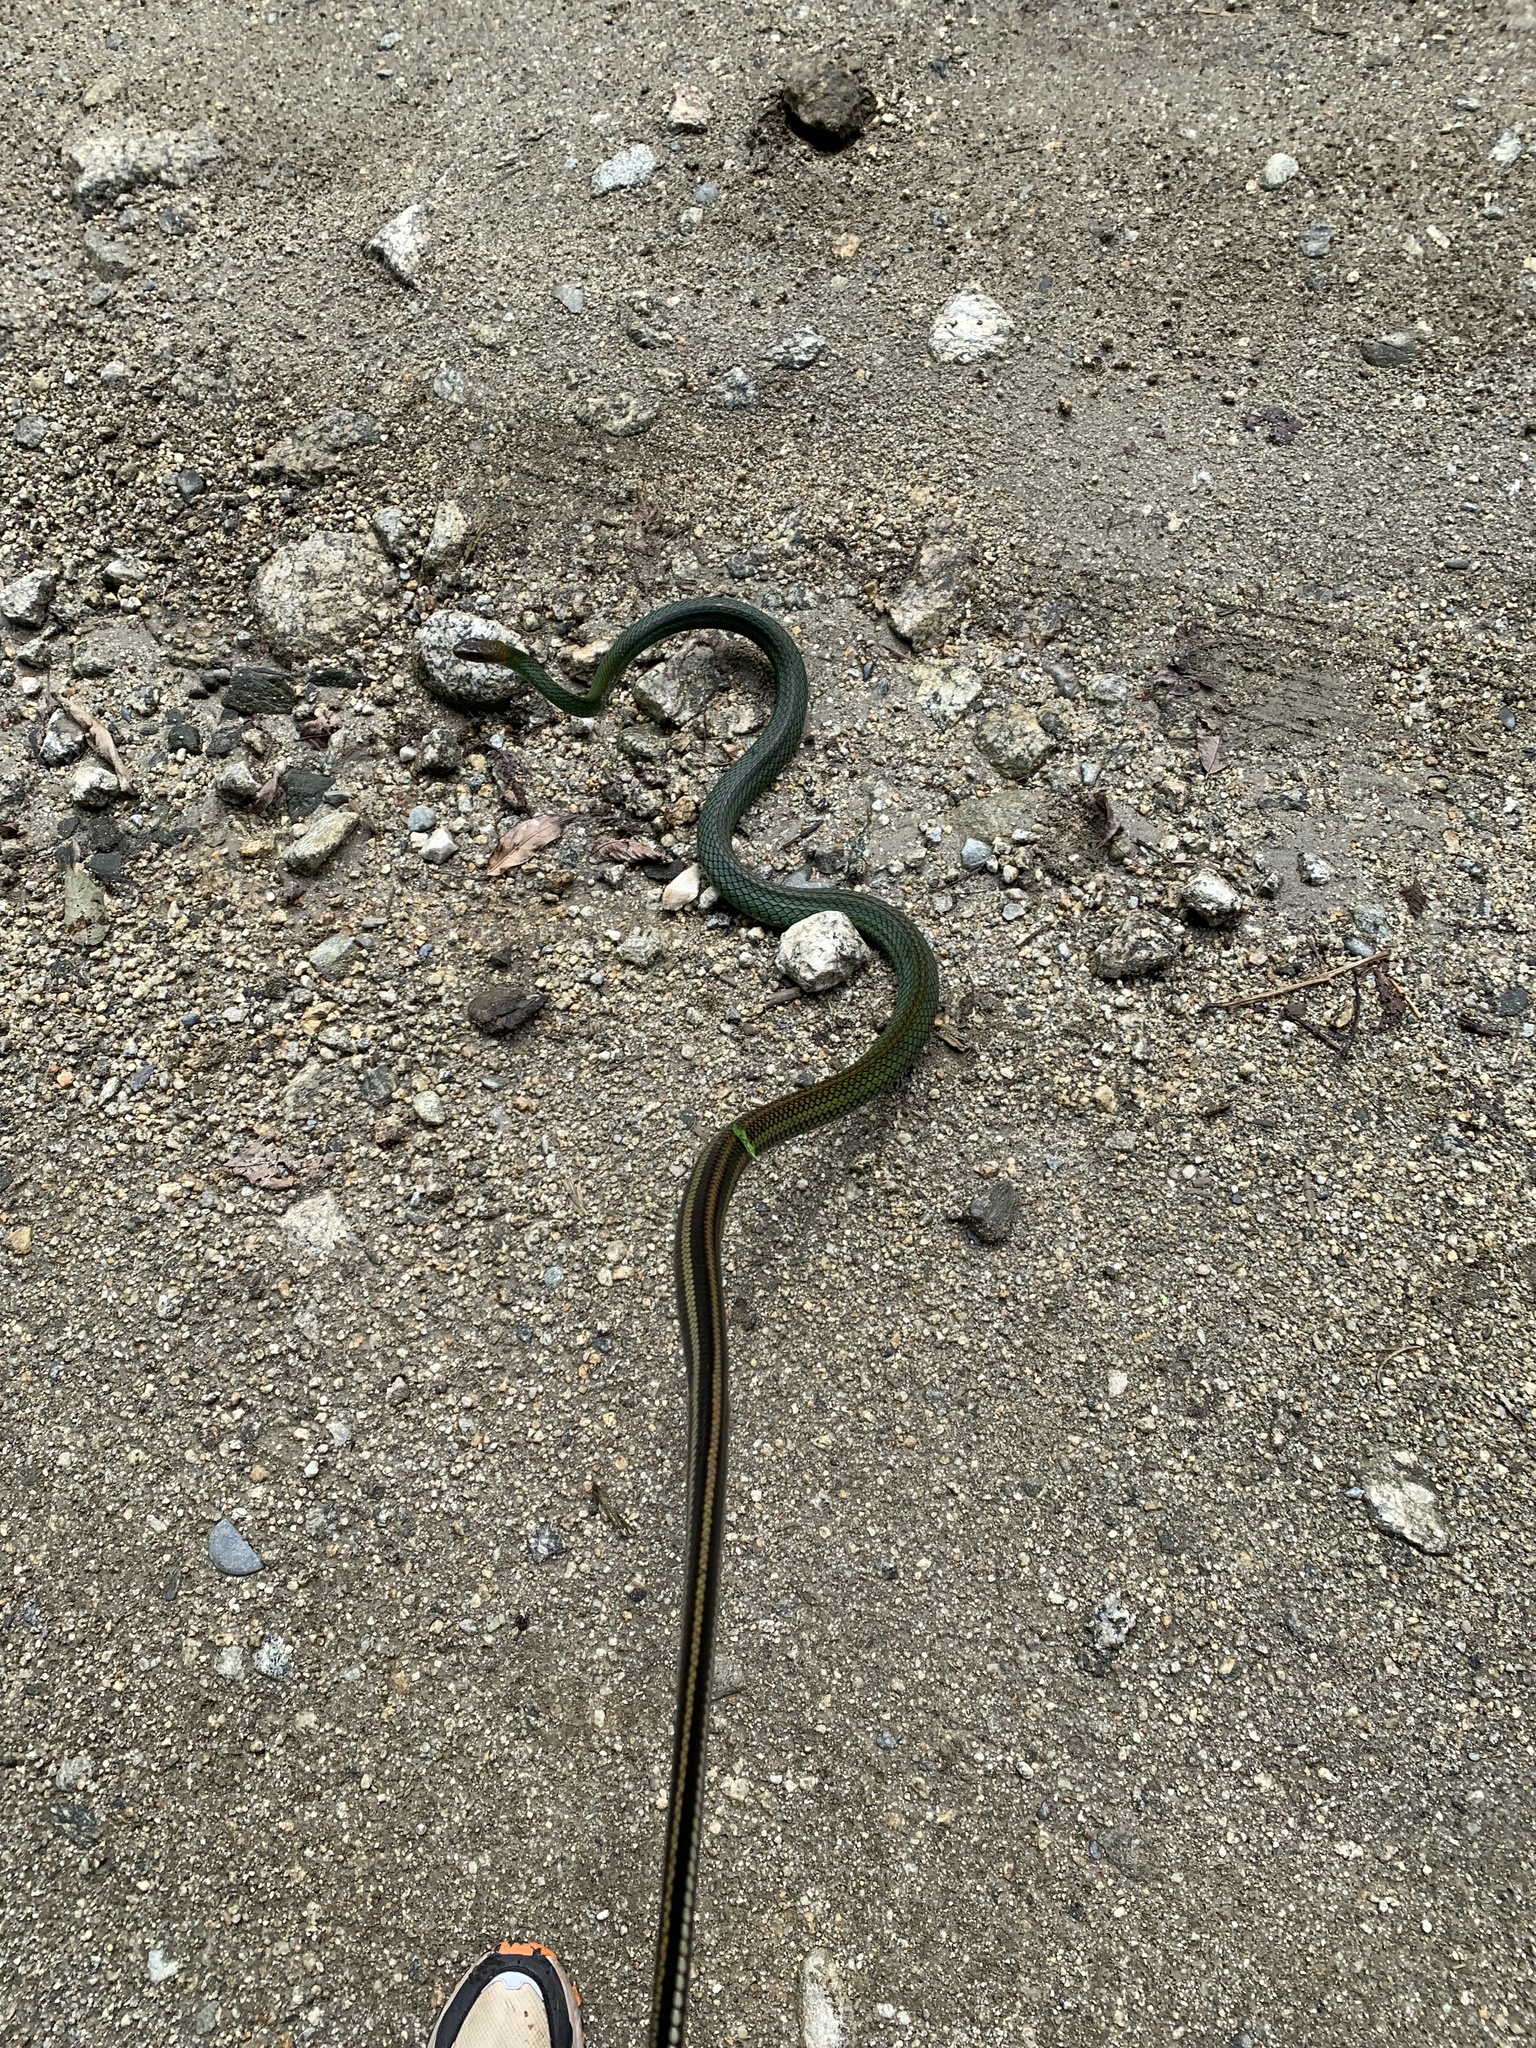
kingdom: Animalia
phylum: Chordata
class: Squamata
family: Colubridae
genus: Ptyas
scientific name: Ptyas nigromarginata
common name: Black-bordered rat snake
